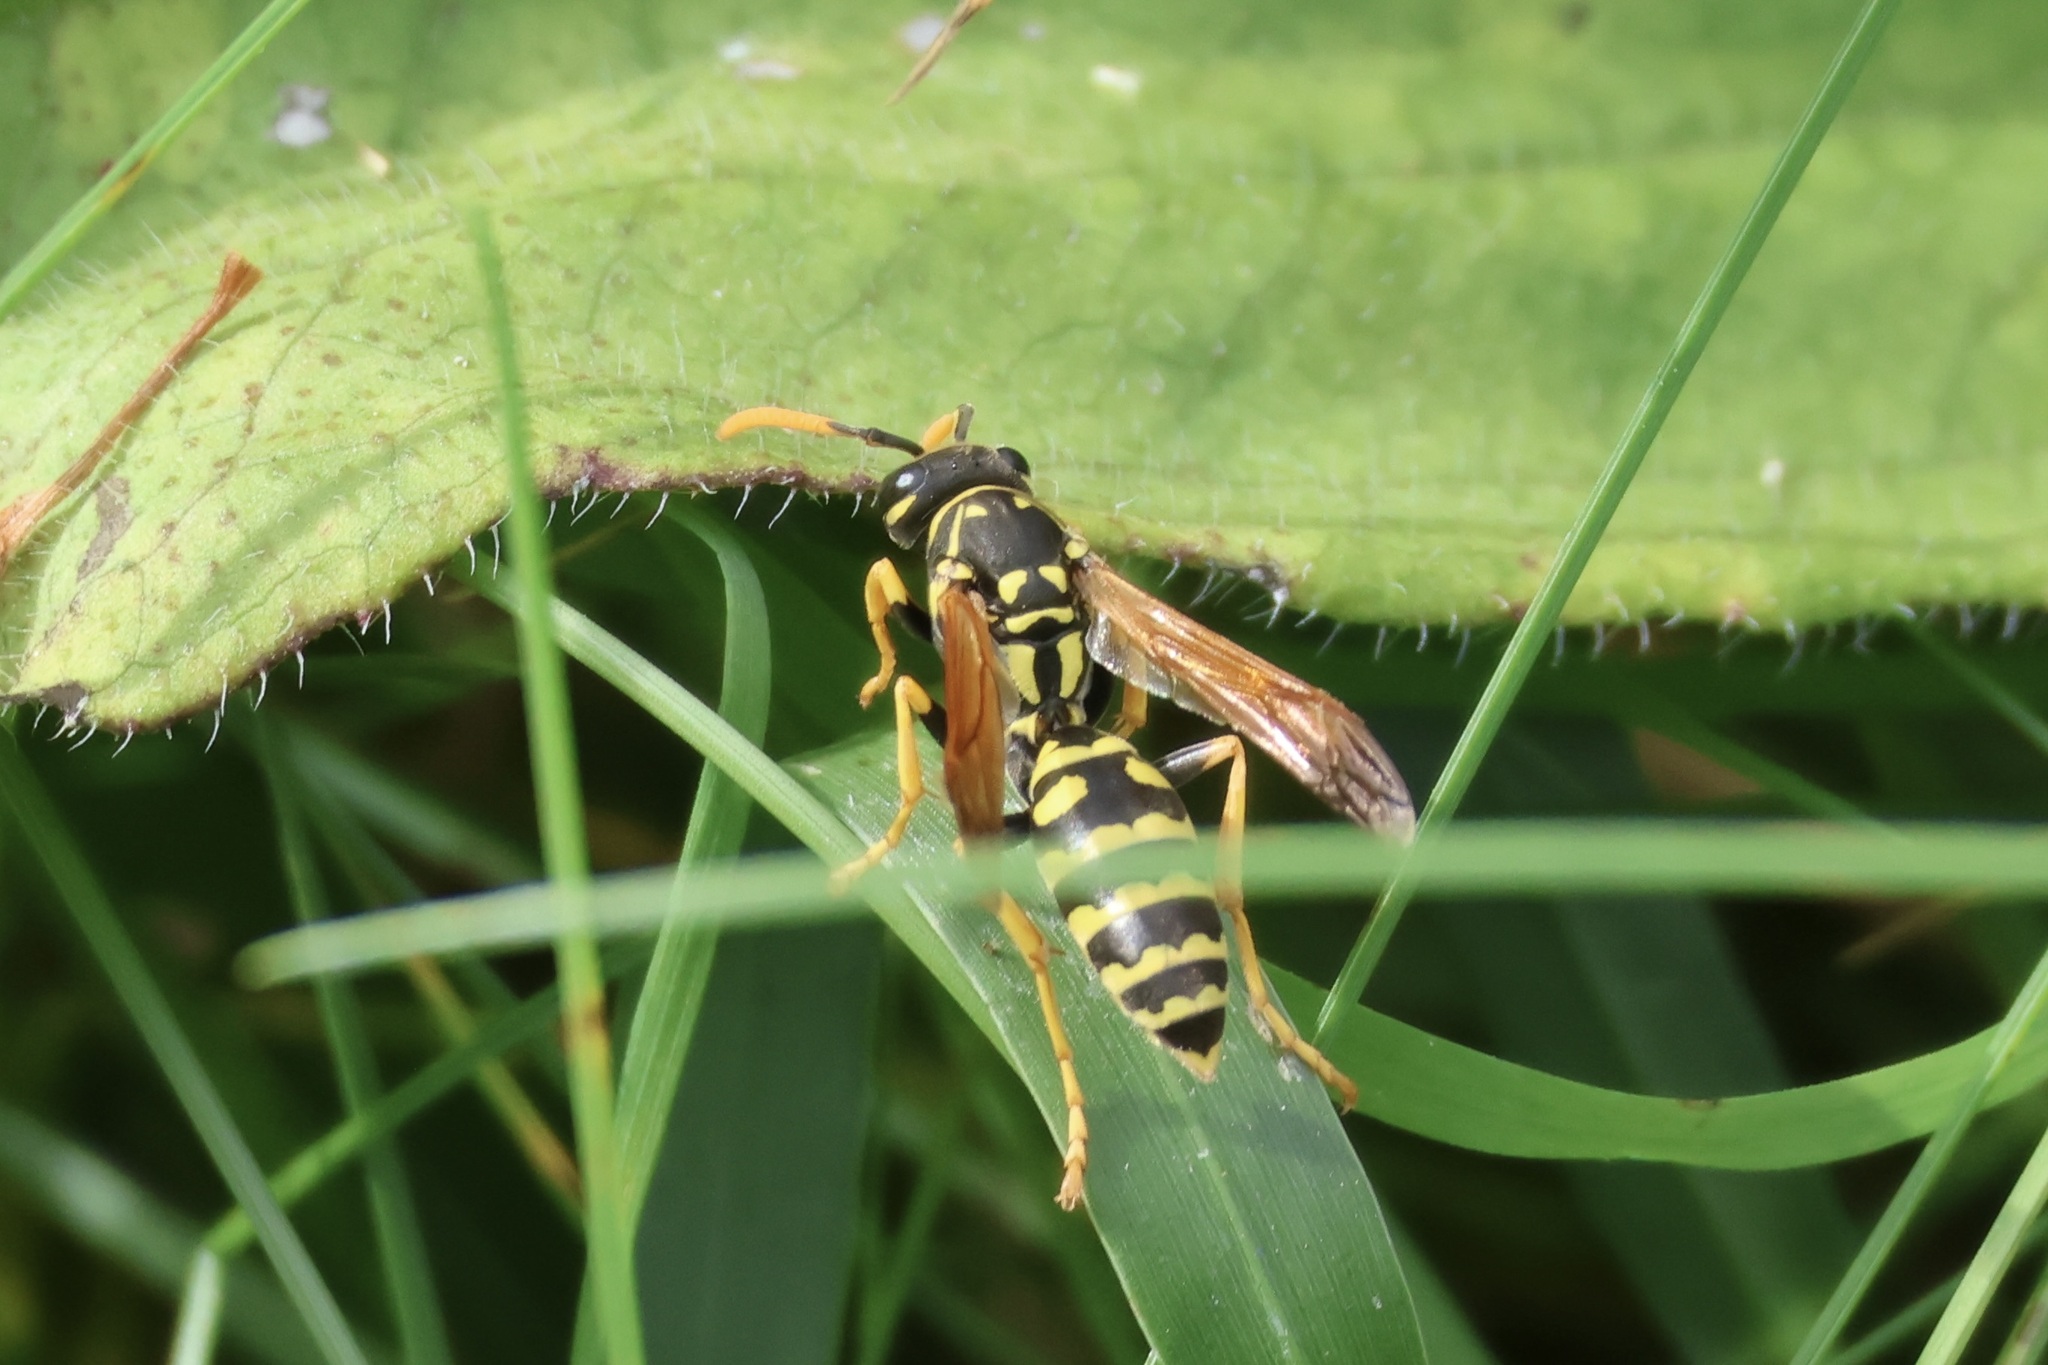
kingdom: Animalia
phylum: Arthropoda
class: Insecta
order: Hymenoptera
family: Eumenidae
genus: Polistes
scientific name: Polistes dominula
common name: Paper wasp
